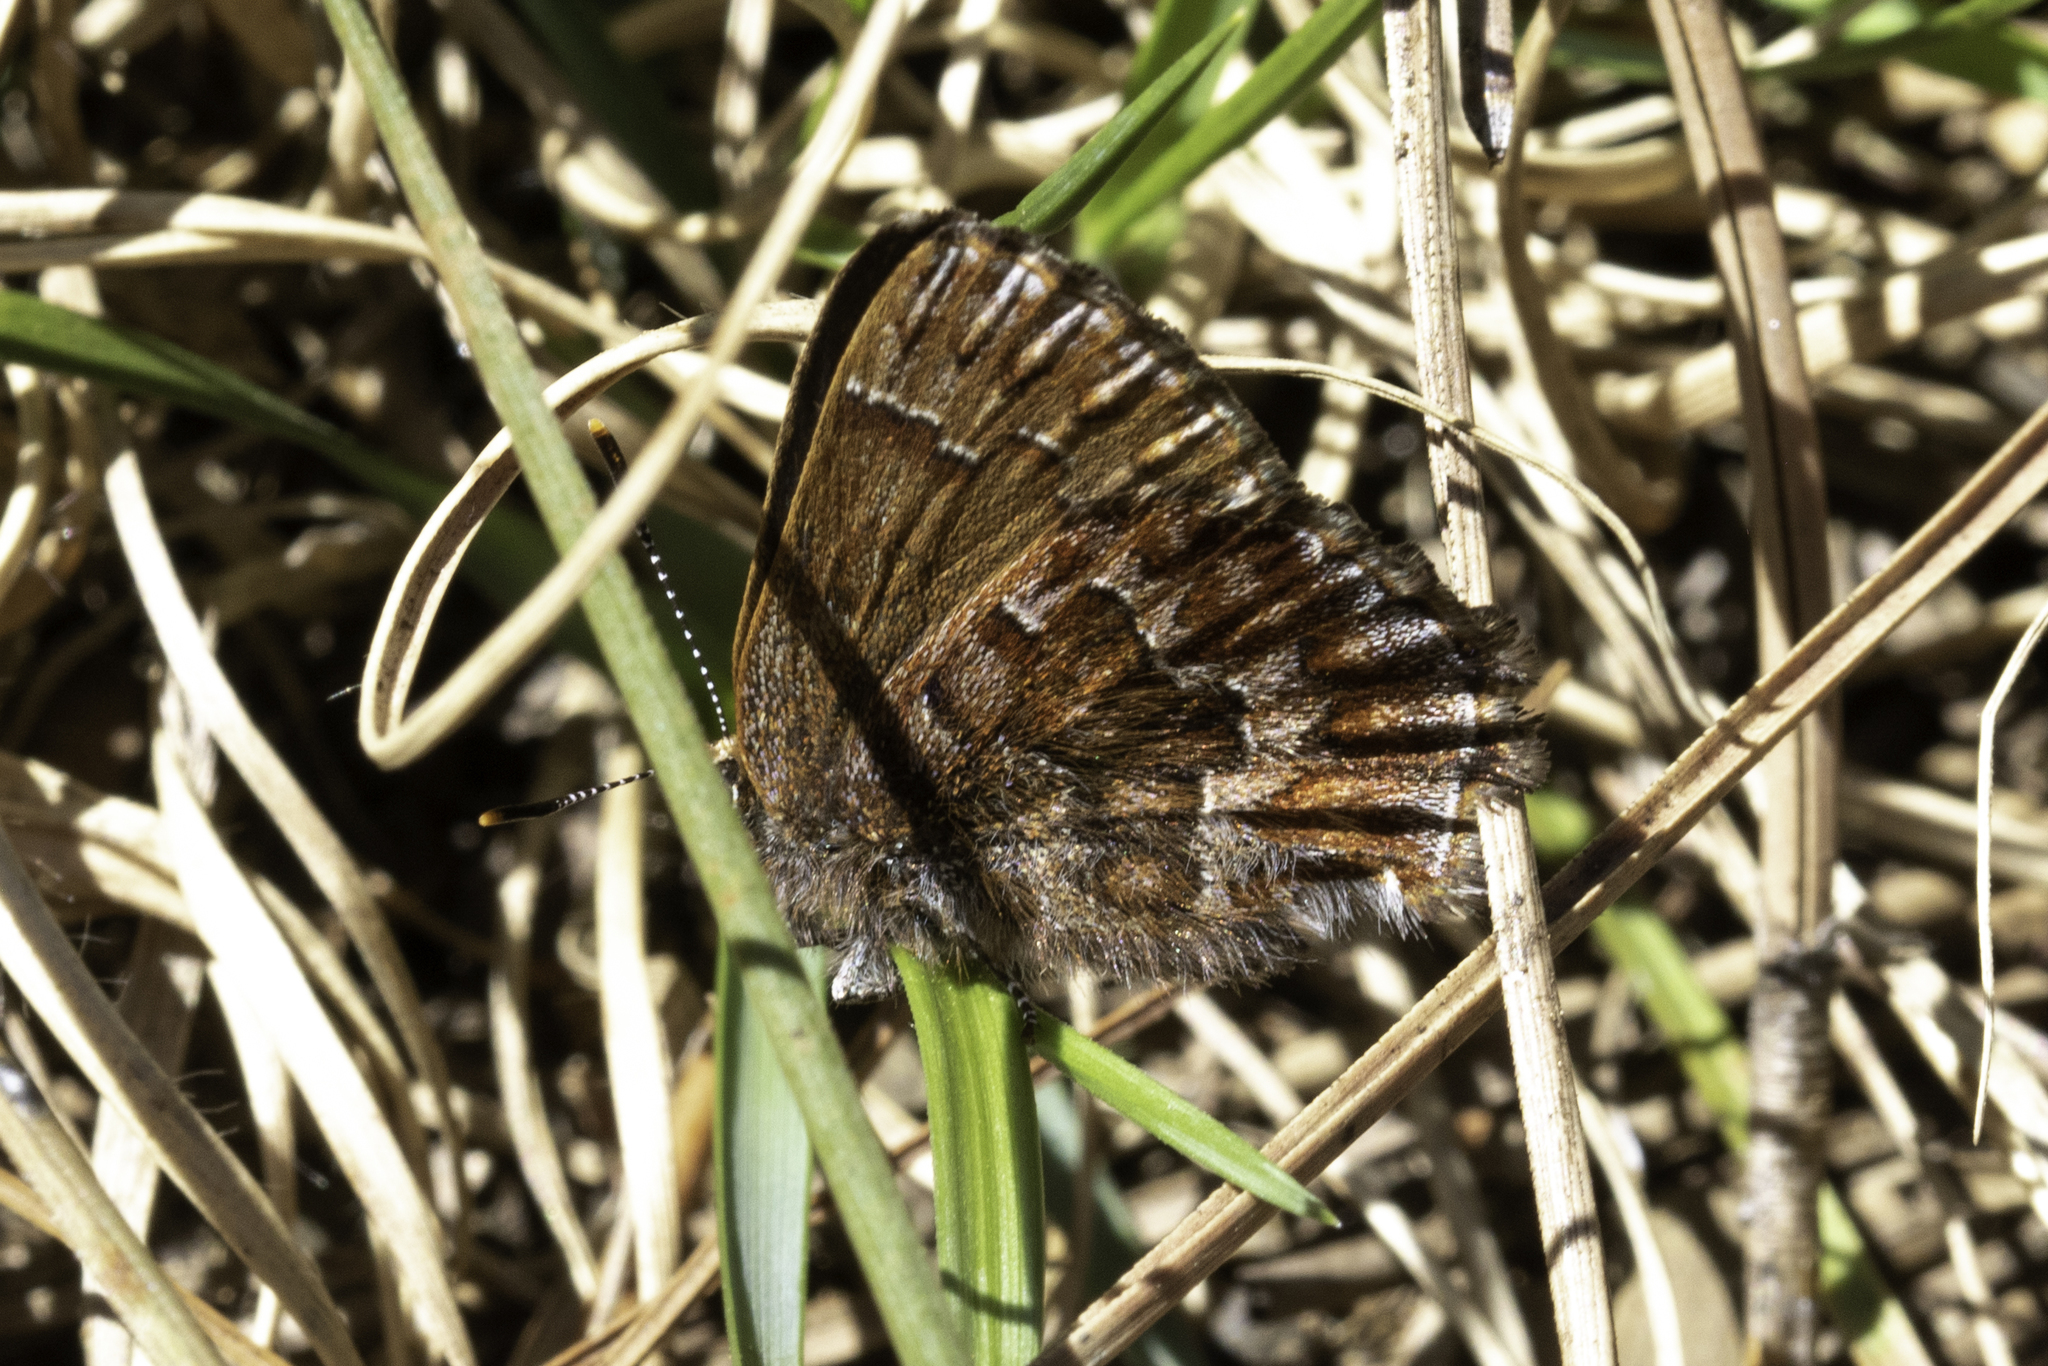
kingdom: Animalia
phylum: Arthropoda
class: Insecta
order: Lepidoptera
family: Lycaenidae
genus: Incisalia
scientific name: Incisalia niphon
